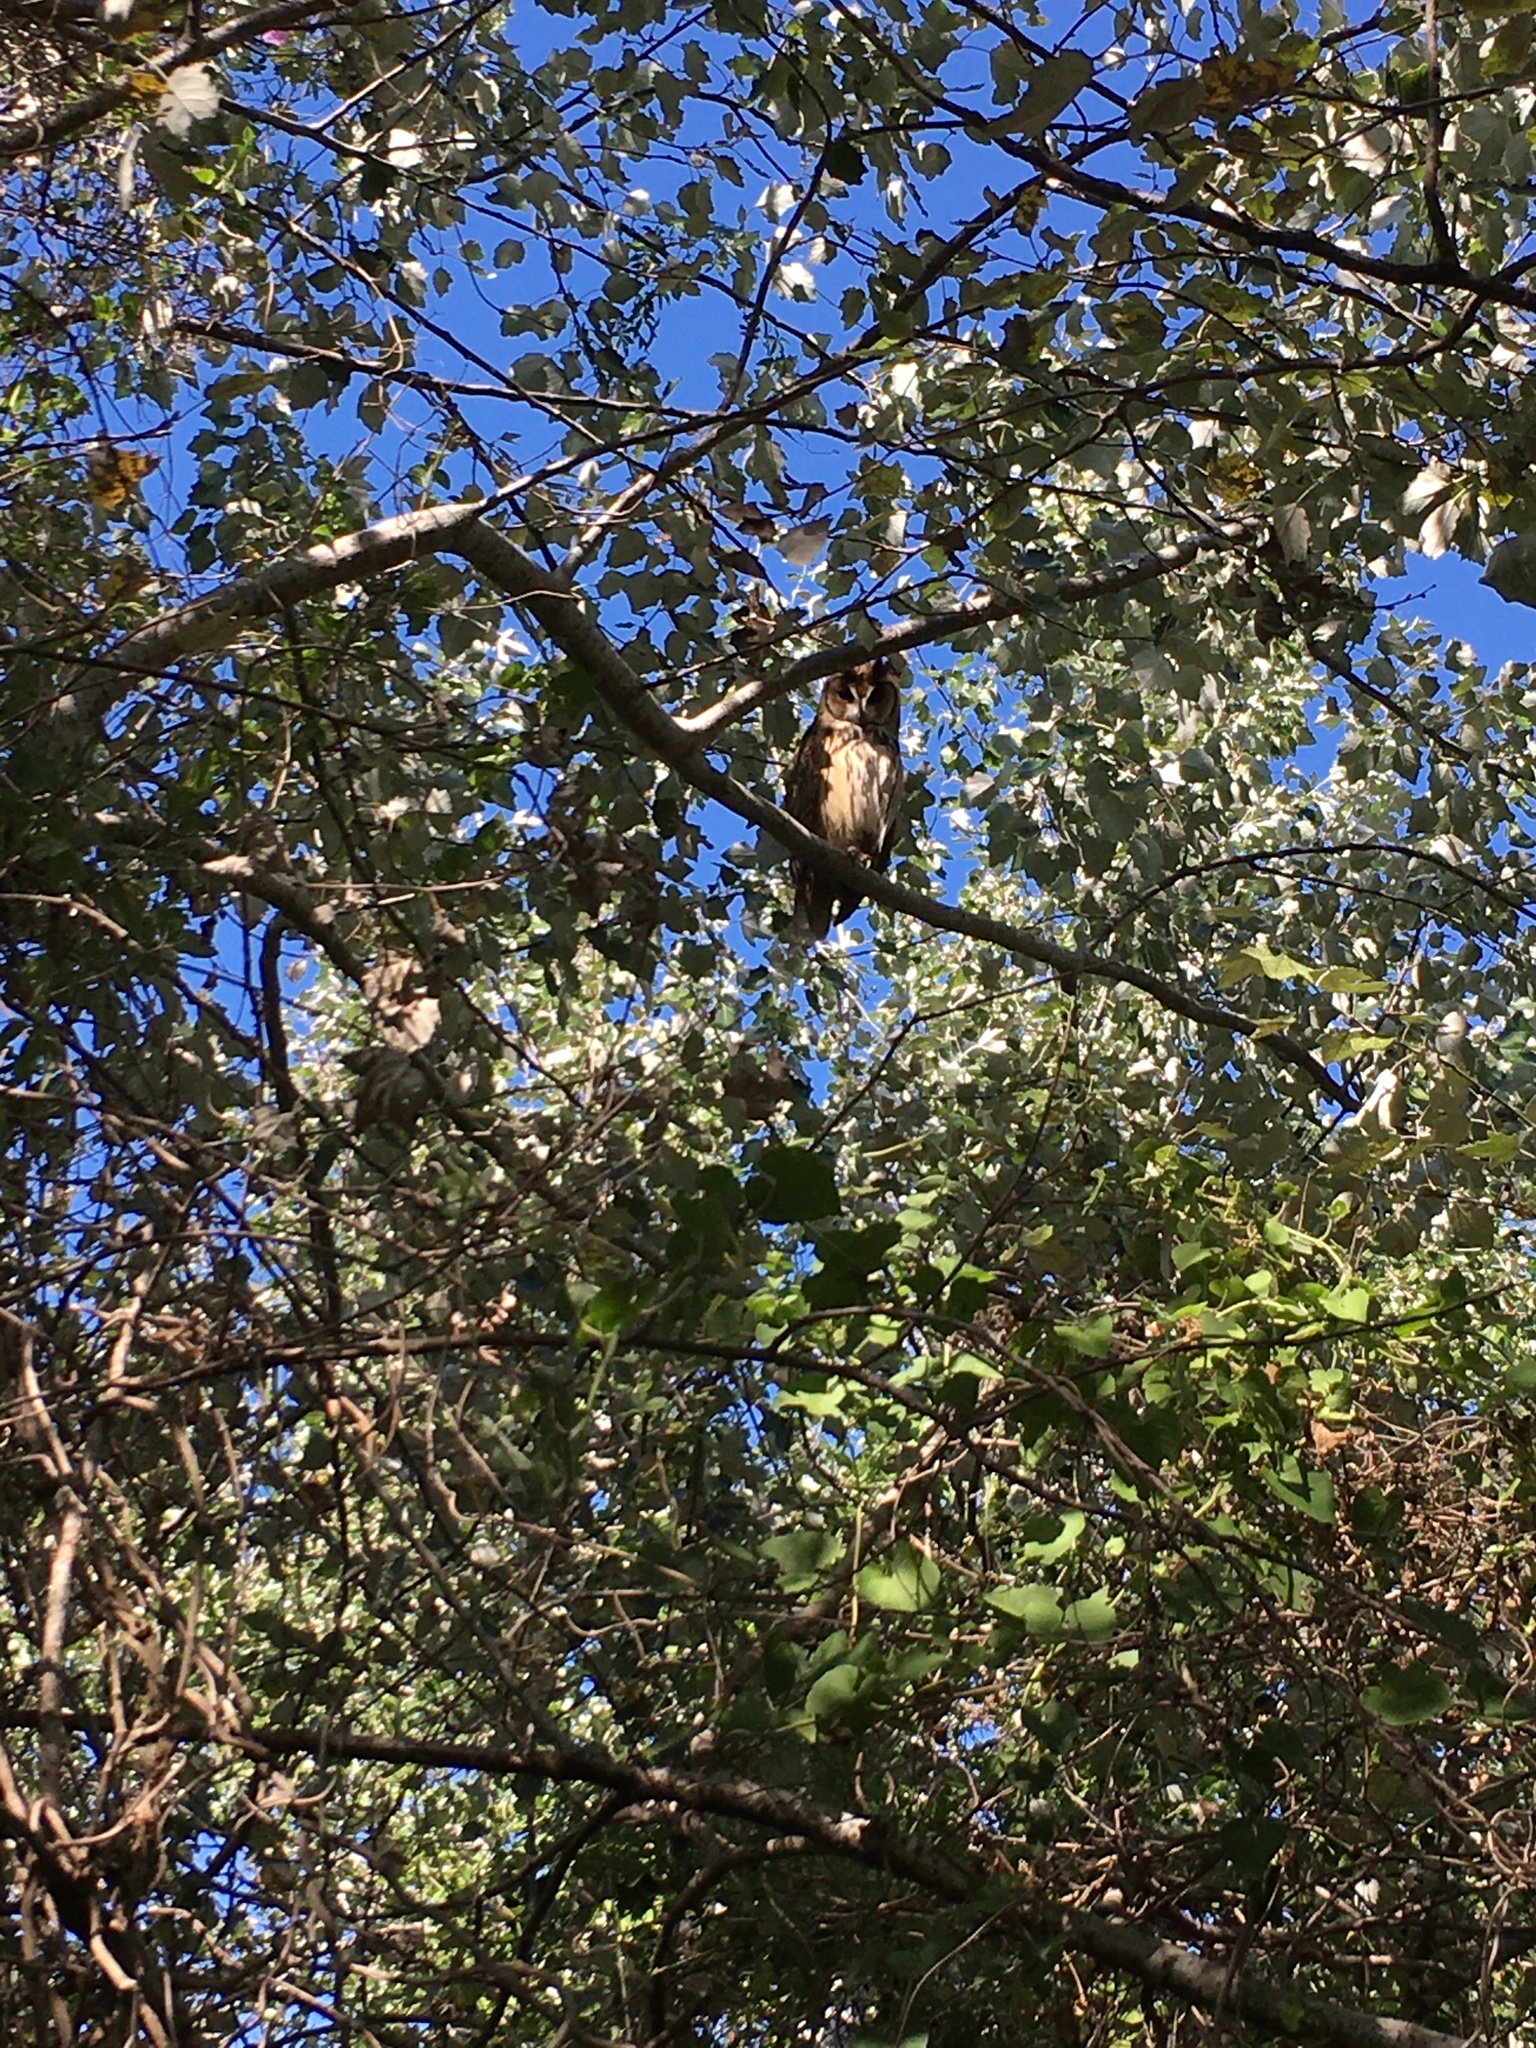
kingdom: Animalia
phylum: Chordata
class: Aves
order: Strigiformes
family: Strigidae
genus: Pseudoscops
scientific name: Pseudoscops clamator
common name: Striped owl
